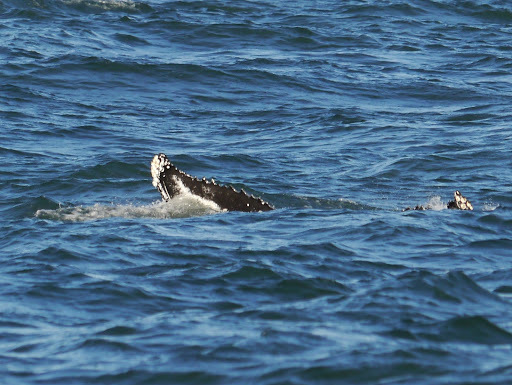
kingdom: Animalia
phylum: Chordata
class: Mammalia
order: Cetacea
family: Balaenopteridae
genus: Megaptera
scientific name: Megaptera novaeangliae
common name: Humpback whale
